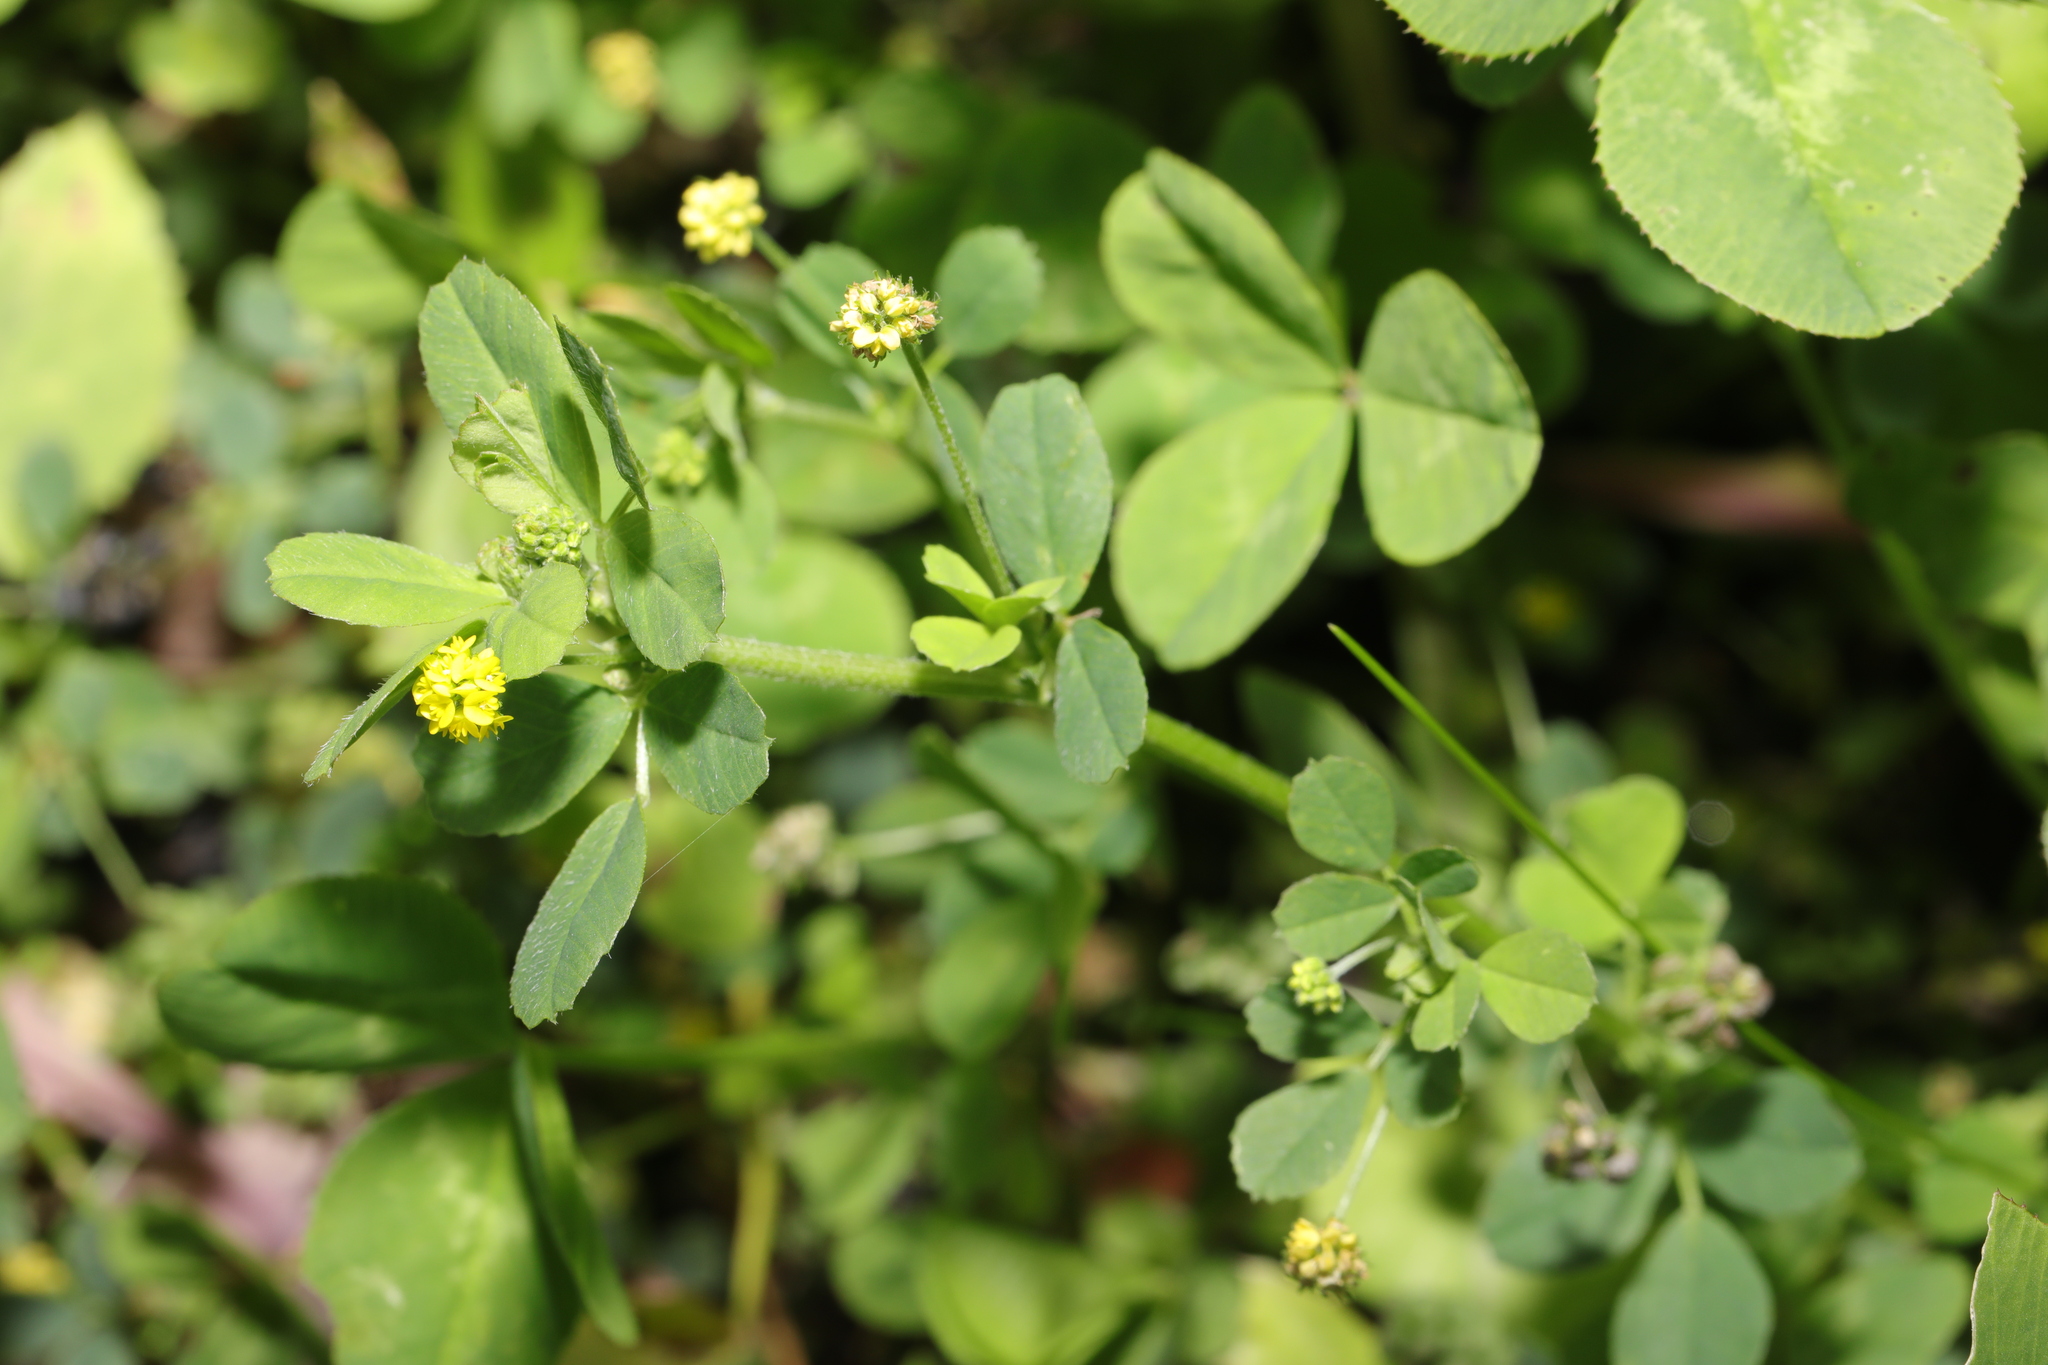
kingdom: Plantae
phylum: Tracheophyta
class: Magnoliopsida
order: Fabales
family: Fabaceae
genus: Medicago
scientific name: Medicago lupulina
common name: Black medick
